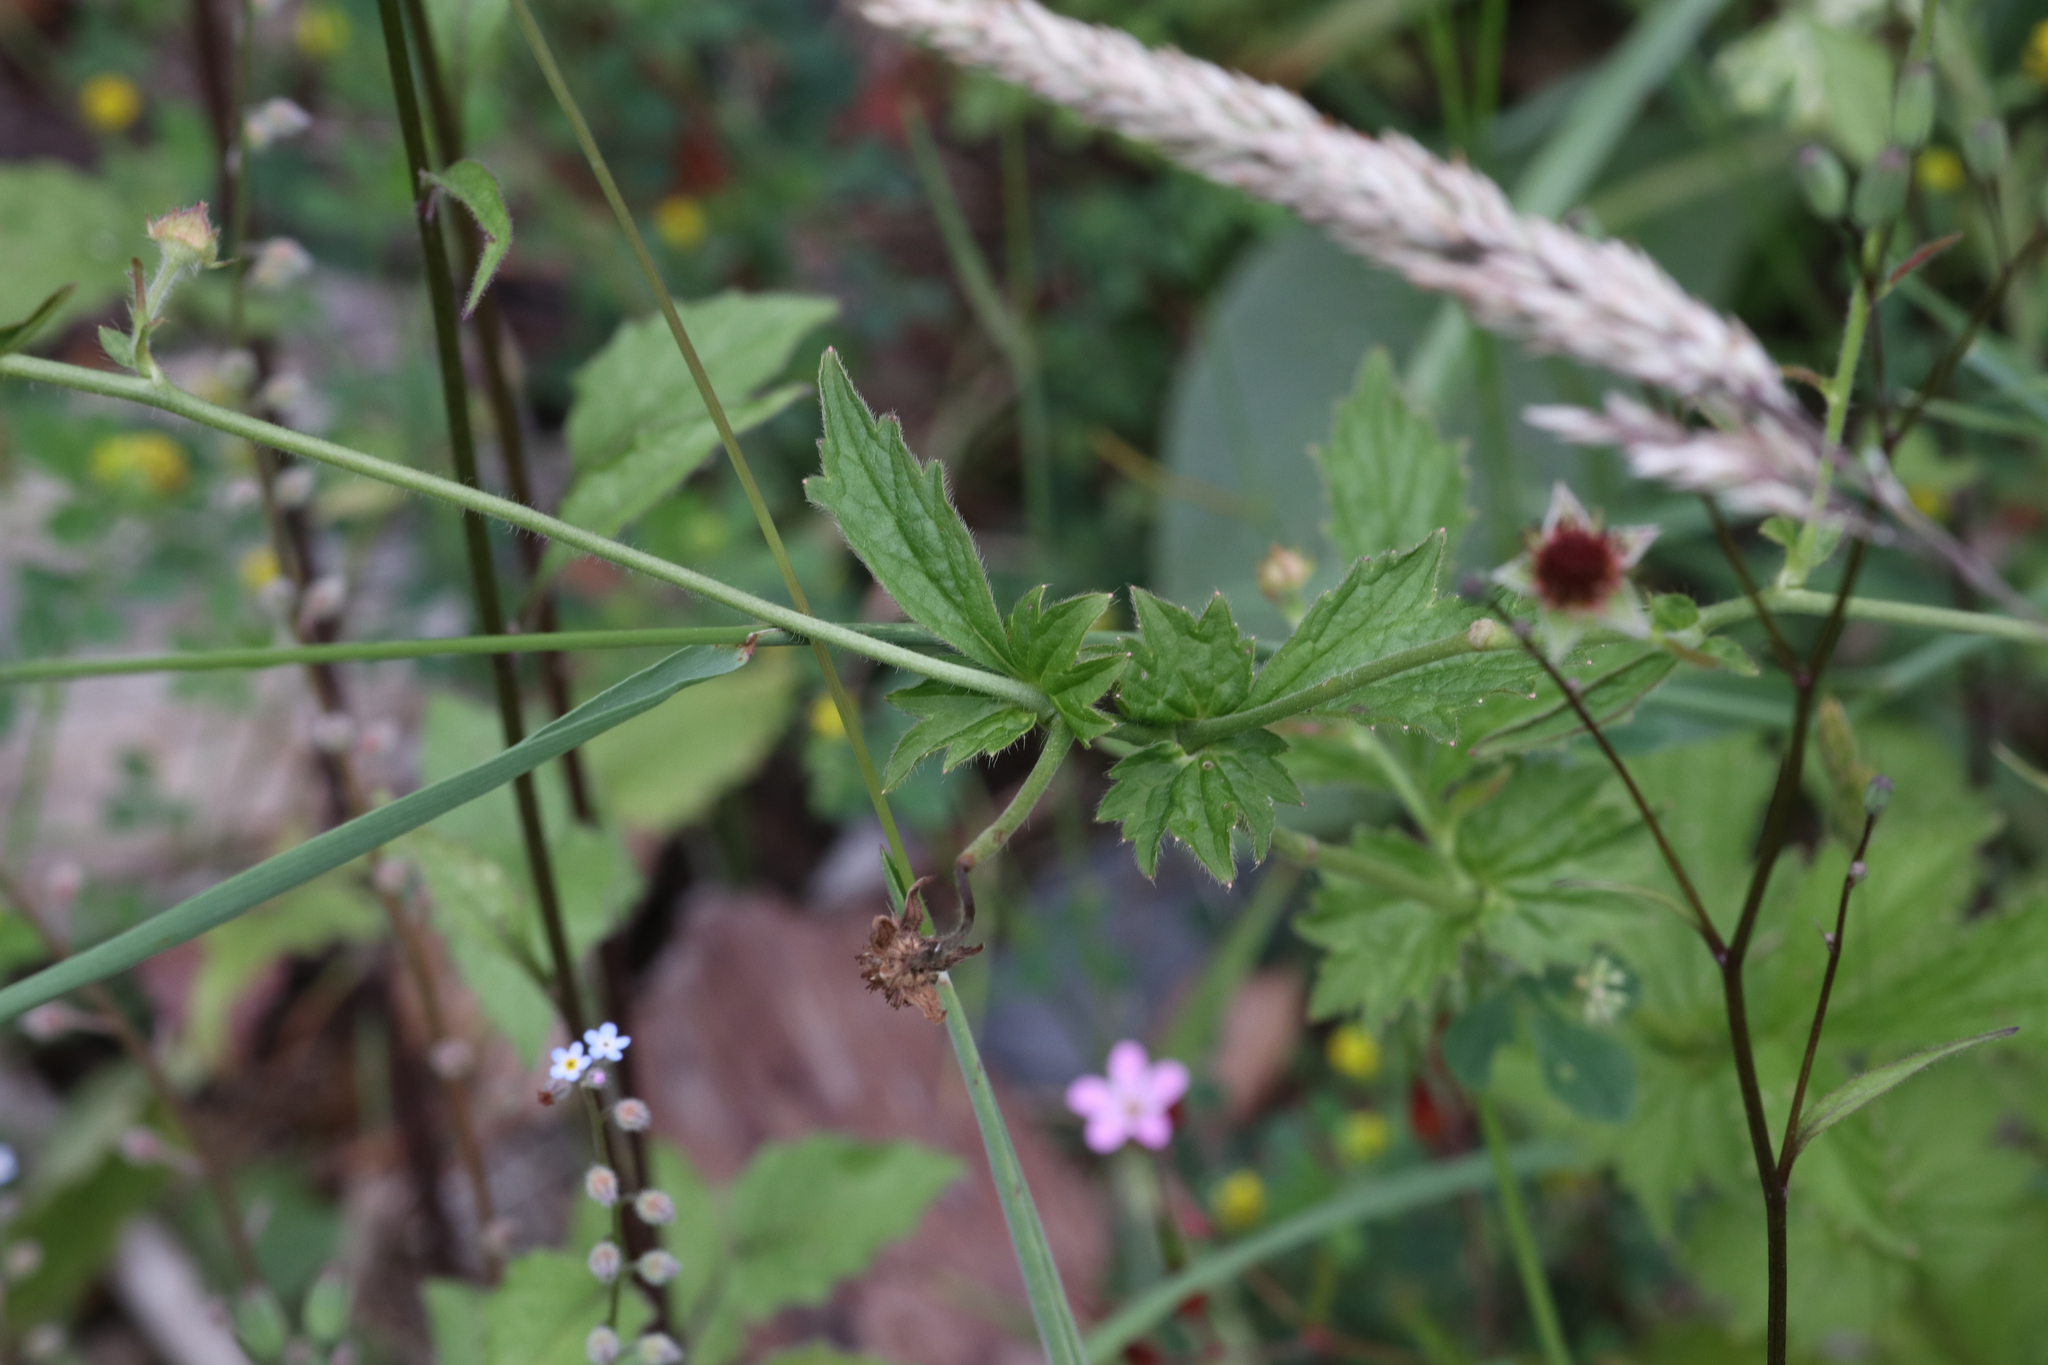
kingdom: Plantae
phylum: Tracheophyta
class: Magnoliopsida
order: Rosales
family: Rosaceae
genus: Geum
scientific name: Geum urbanum
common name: Wood avens
